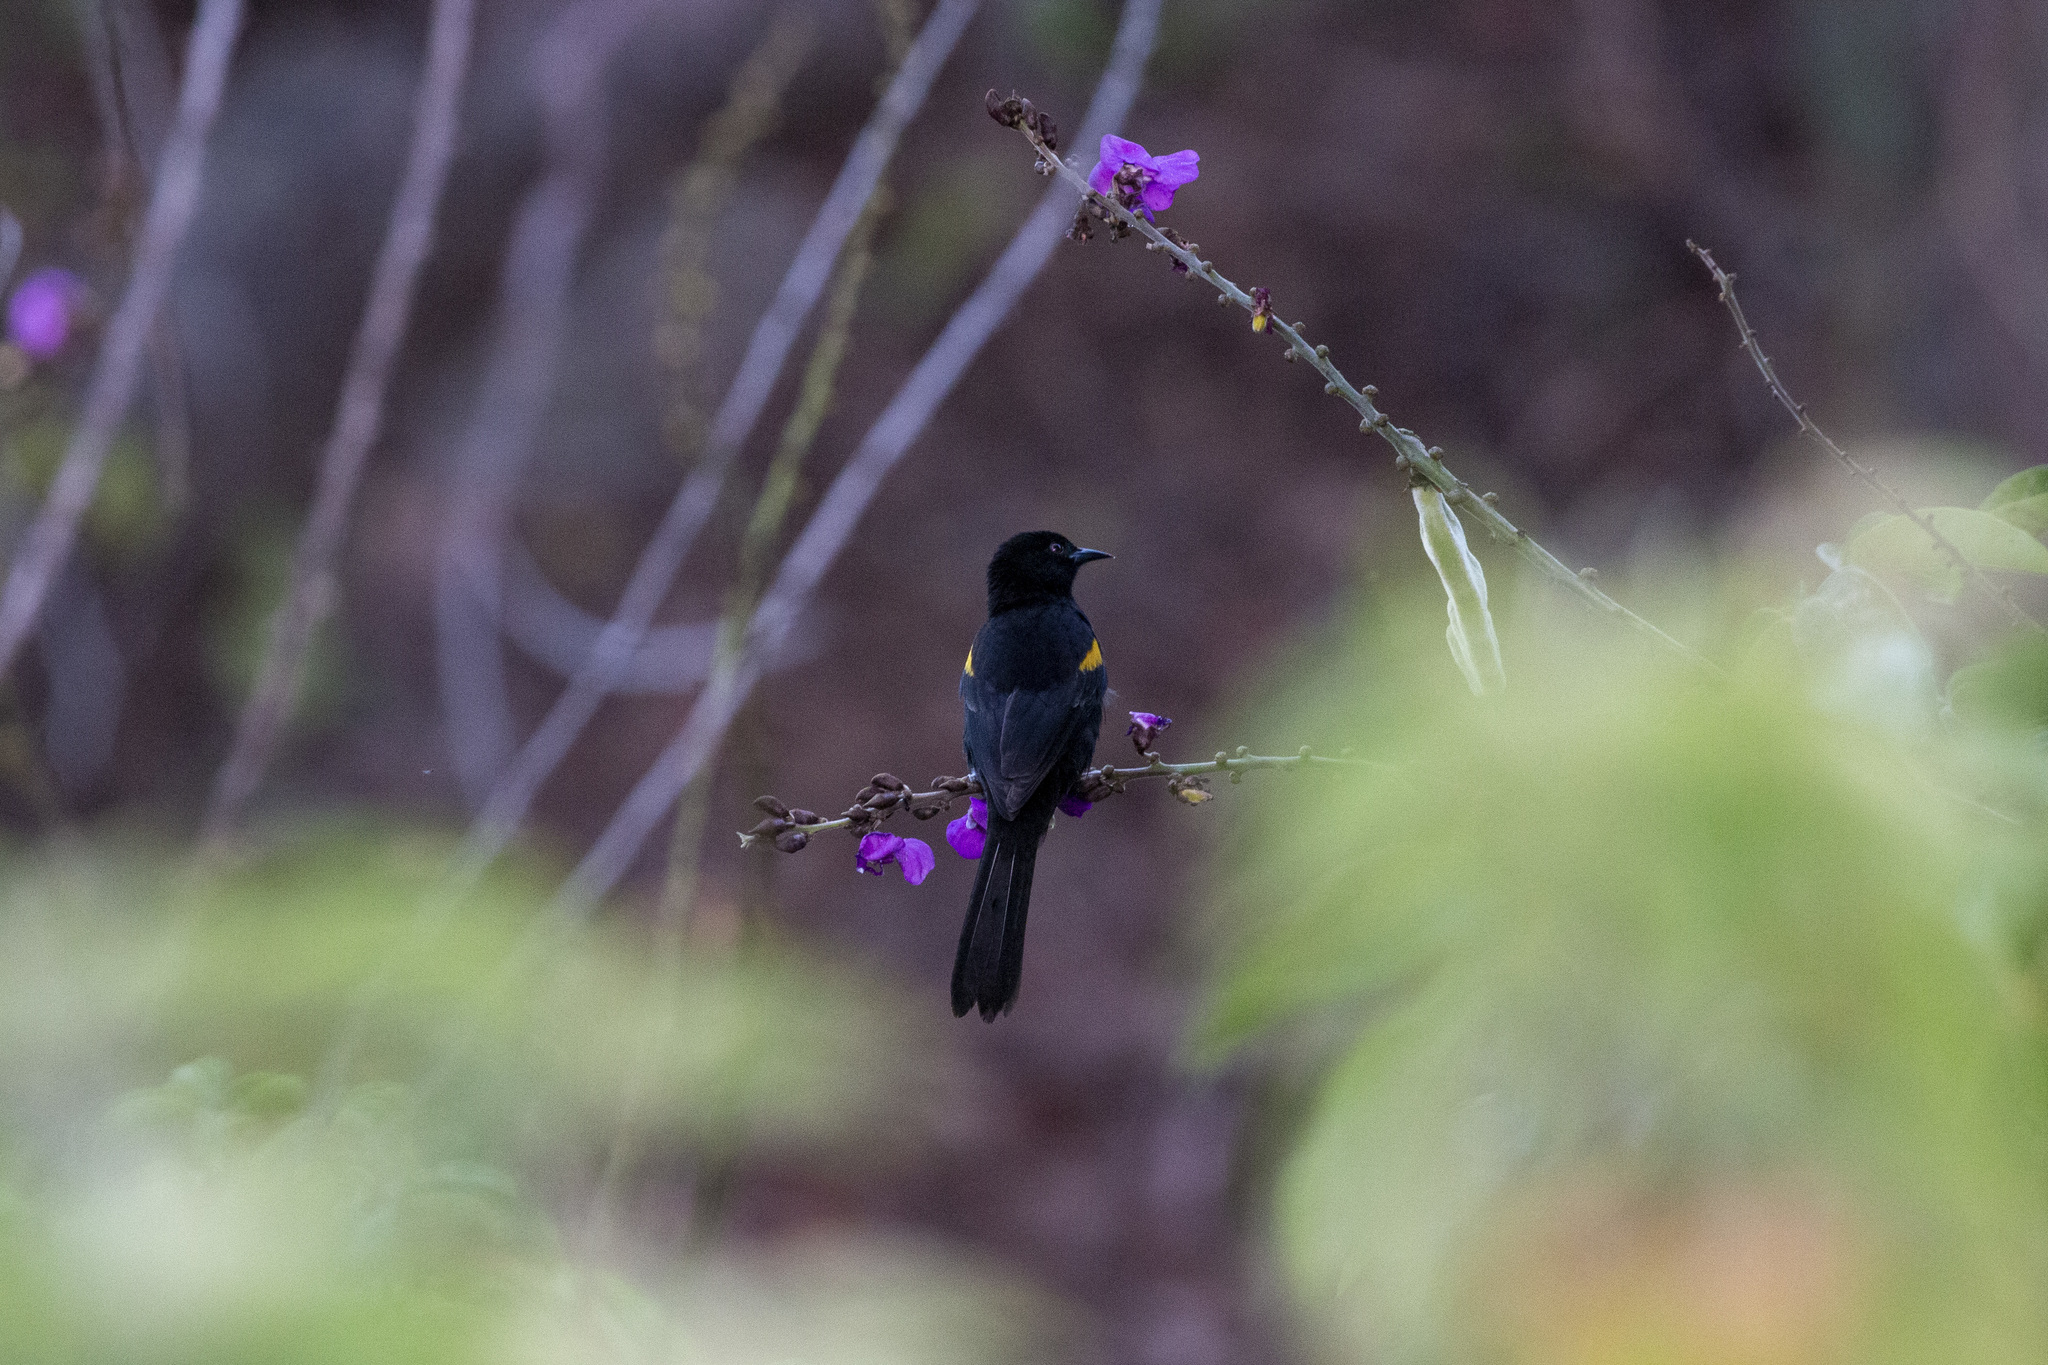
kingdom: Animalia
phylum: Chordata
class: Aves
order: Passeriformes
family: Icteridae
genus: Icterus
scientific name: Icterus cayanensis
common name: Epaulet oriole
